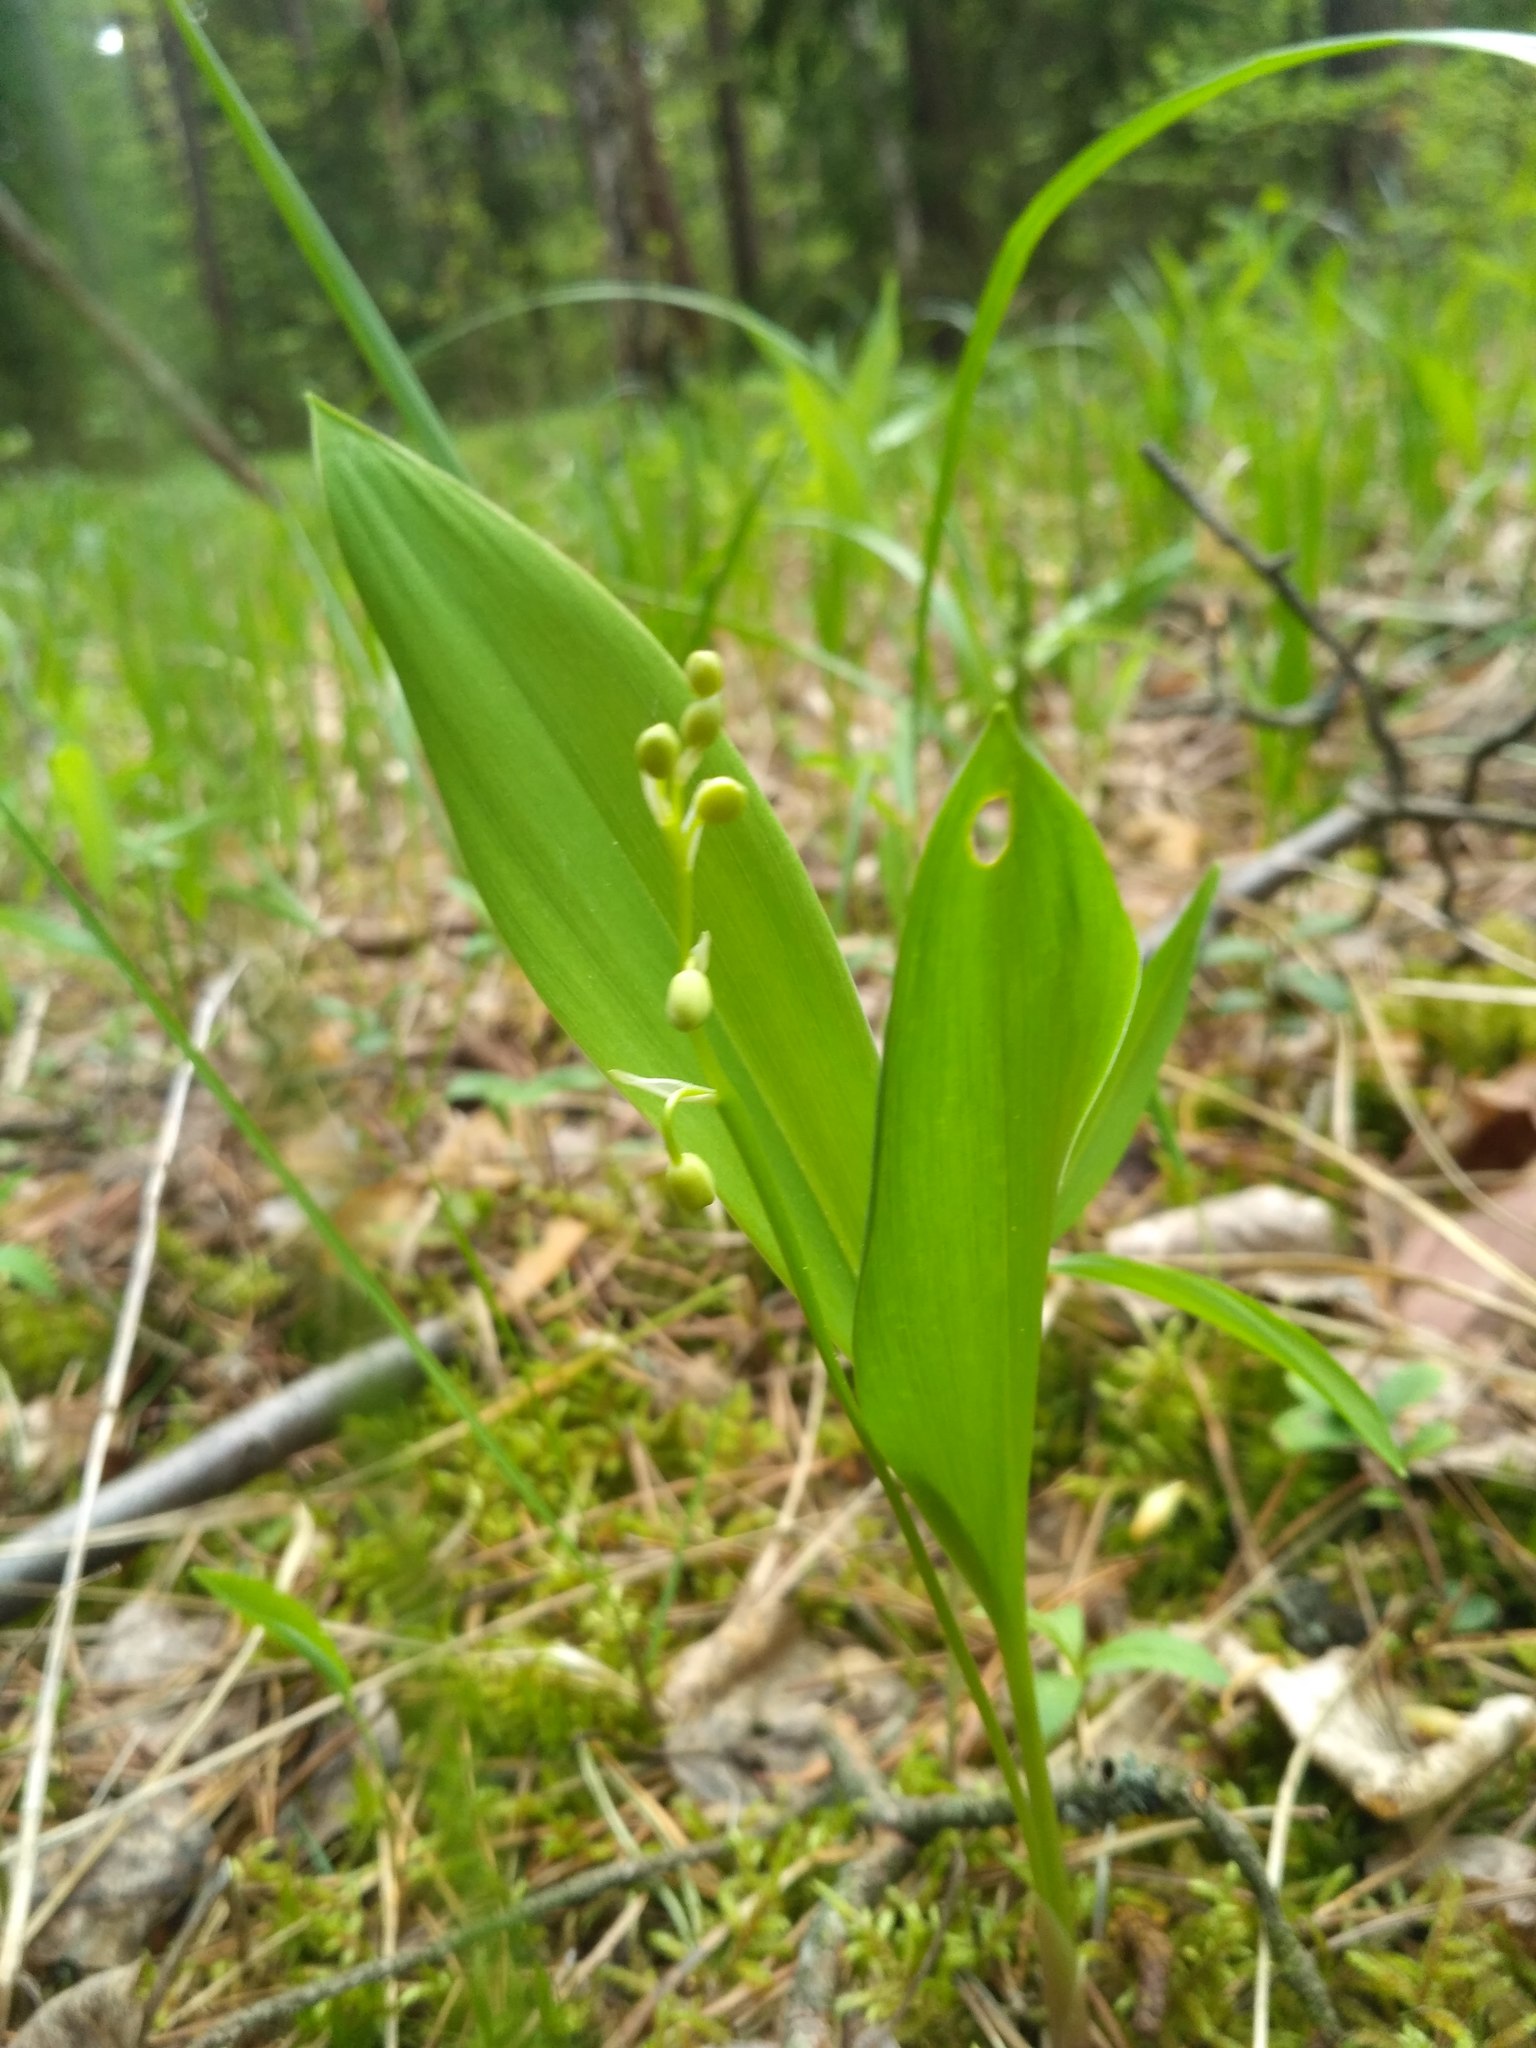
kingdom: Plantae
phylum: Tracheophyta
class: Liliopsida
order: Asparagales
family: Asparagaceae
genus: Convallaria
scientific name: Convallaria majalis
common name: Lily-of-the-valley
